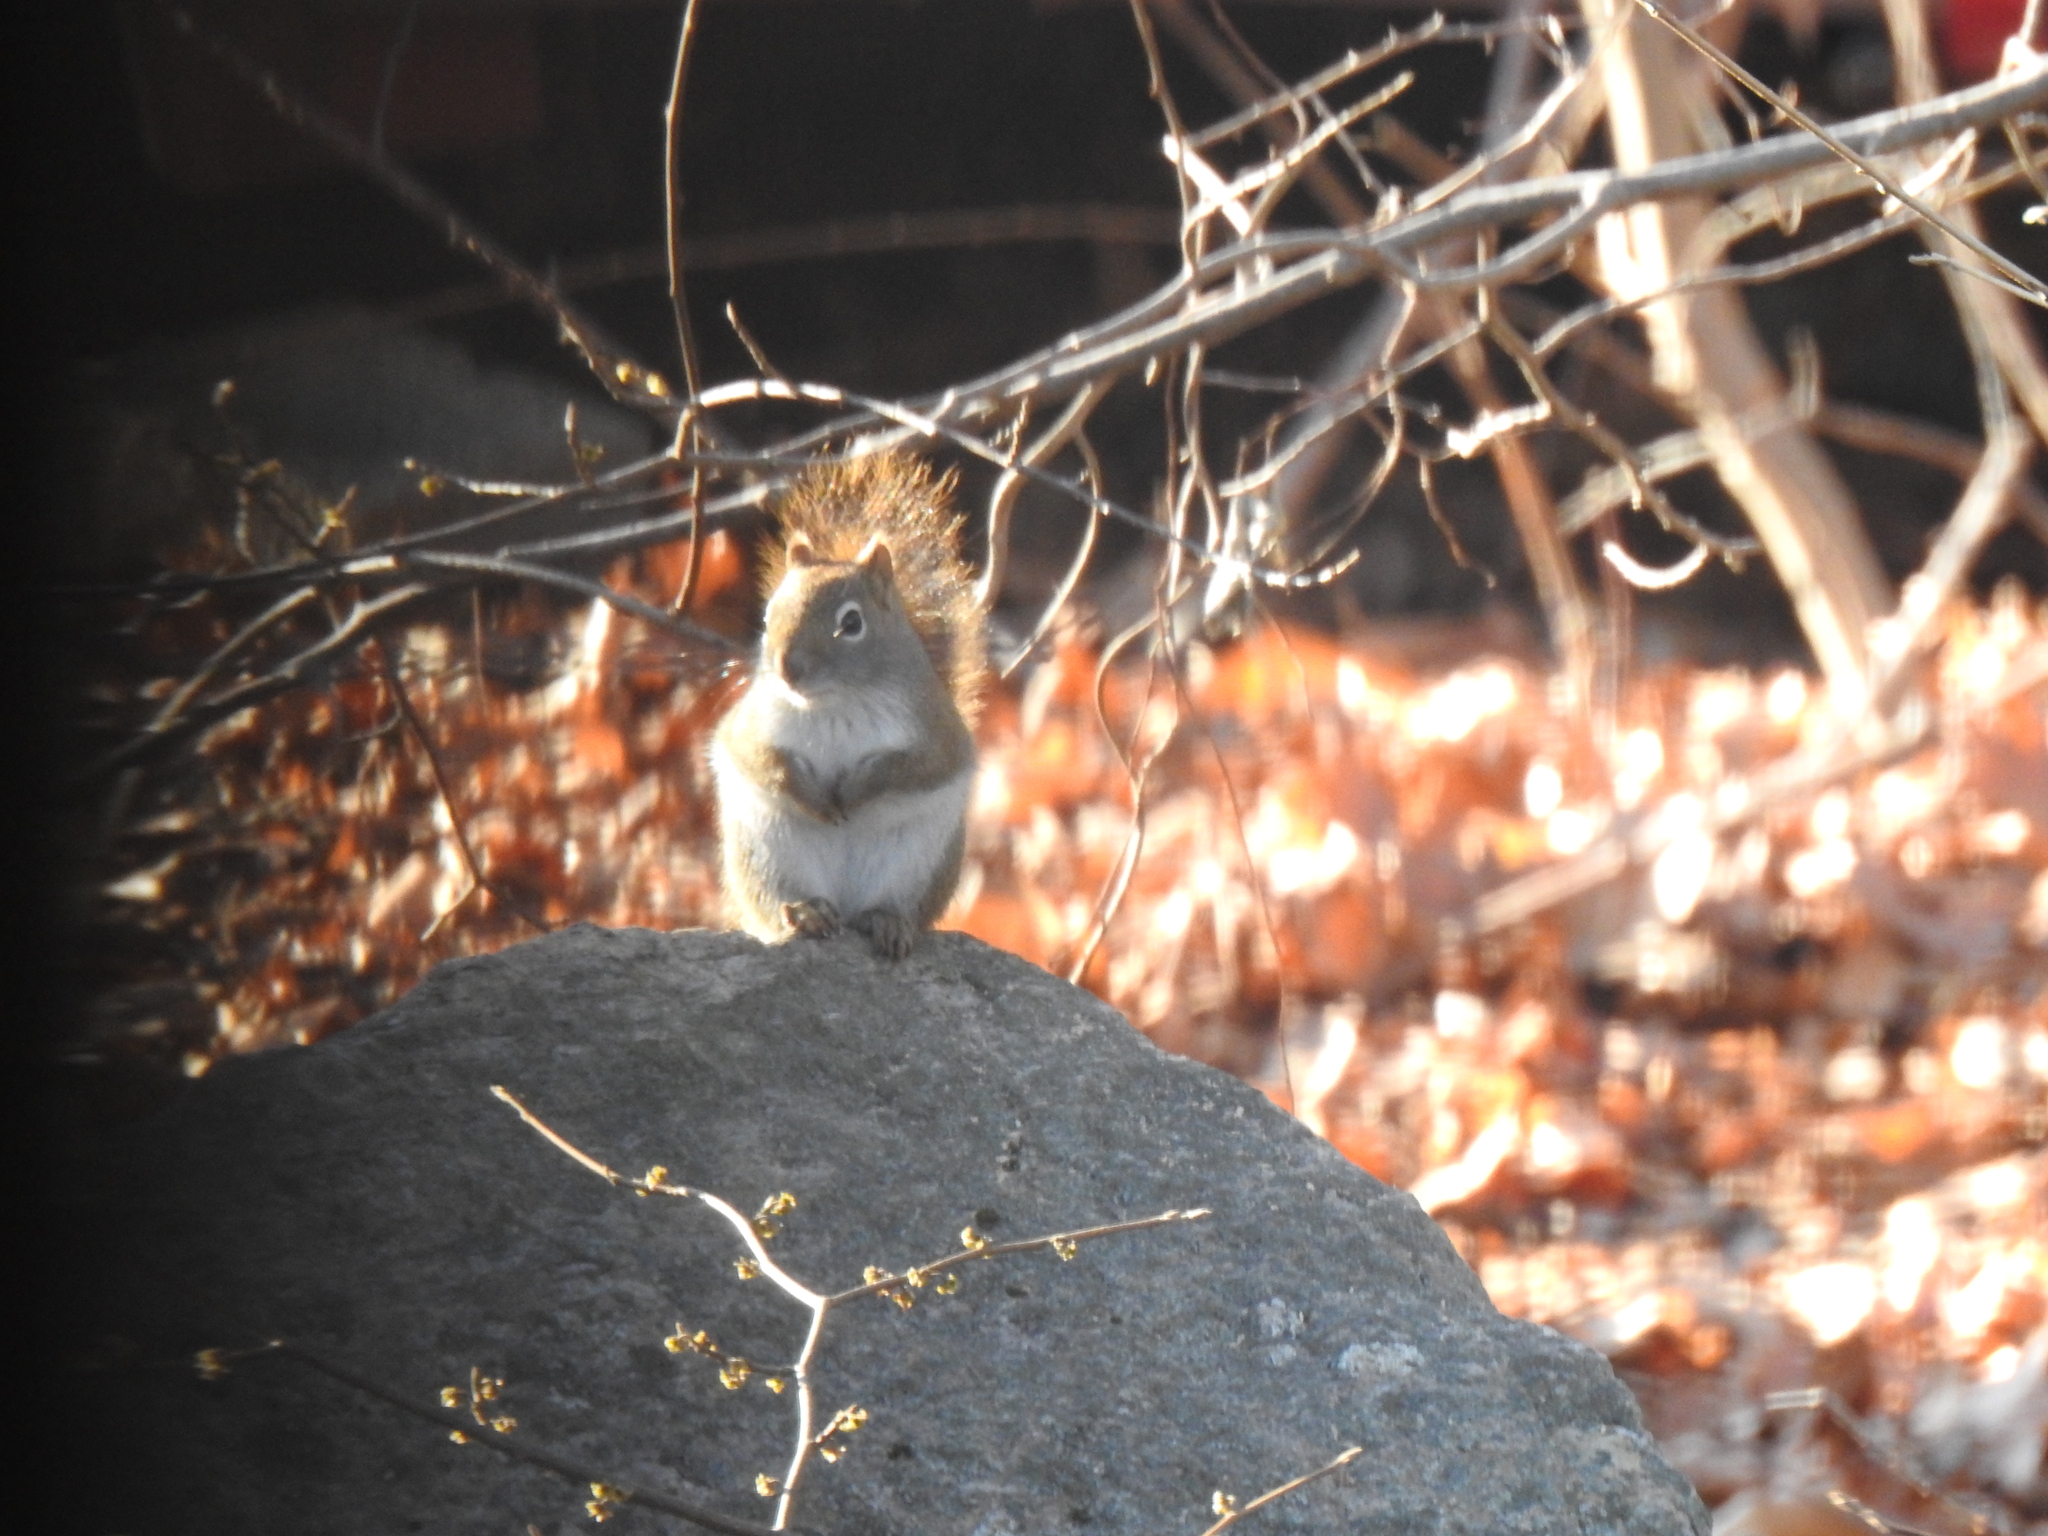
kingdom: Animalia
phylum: Chordata
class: Mammalia
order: Rodentia
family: Sciuridae
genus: Tamiasciurus
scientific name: Tamiasciurus hudsonicus
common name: Red squirrel
